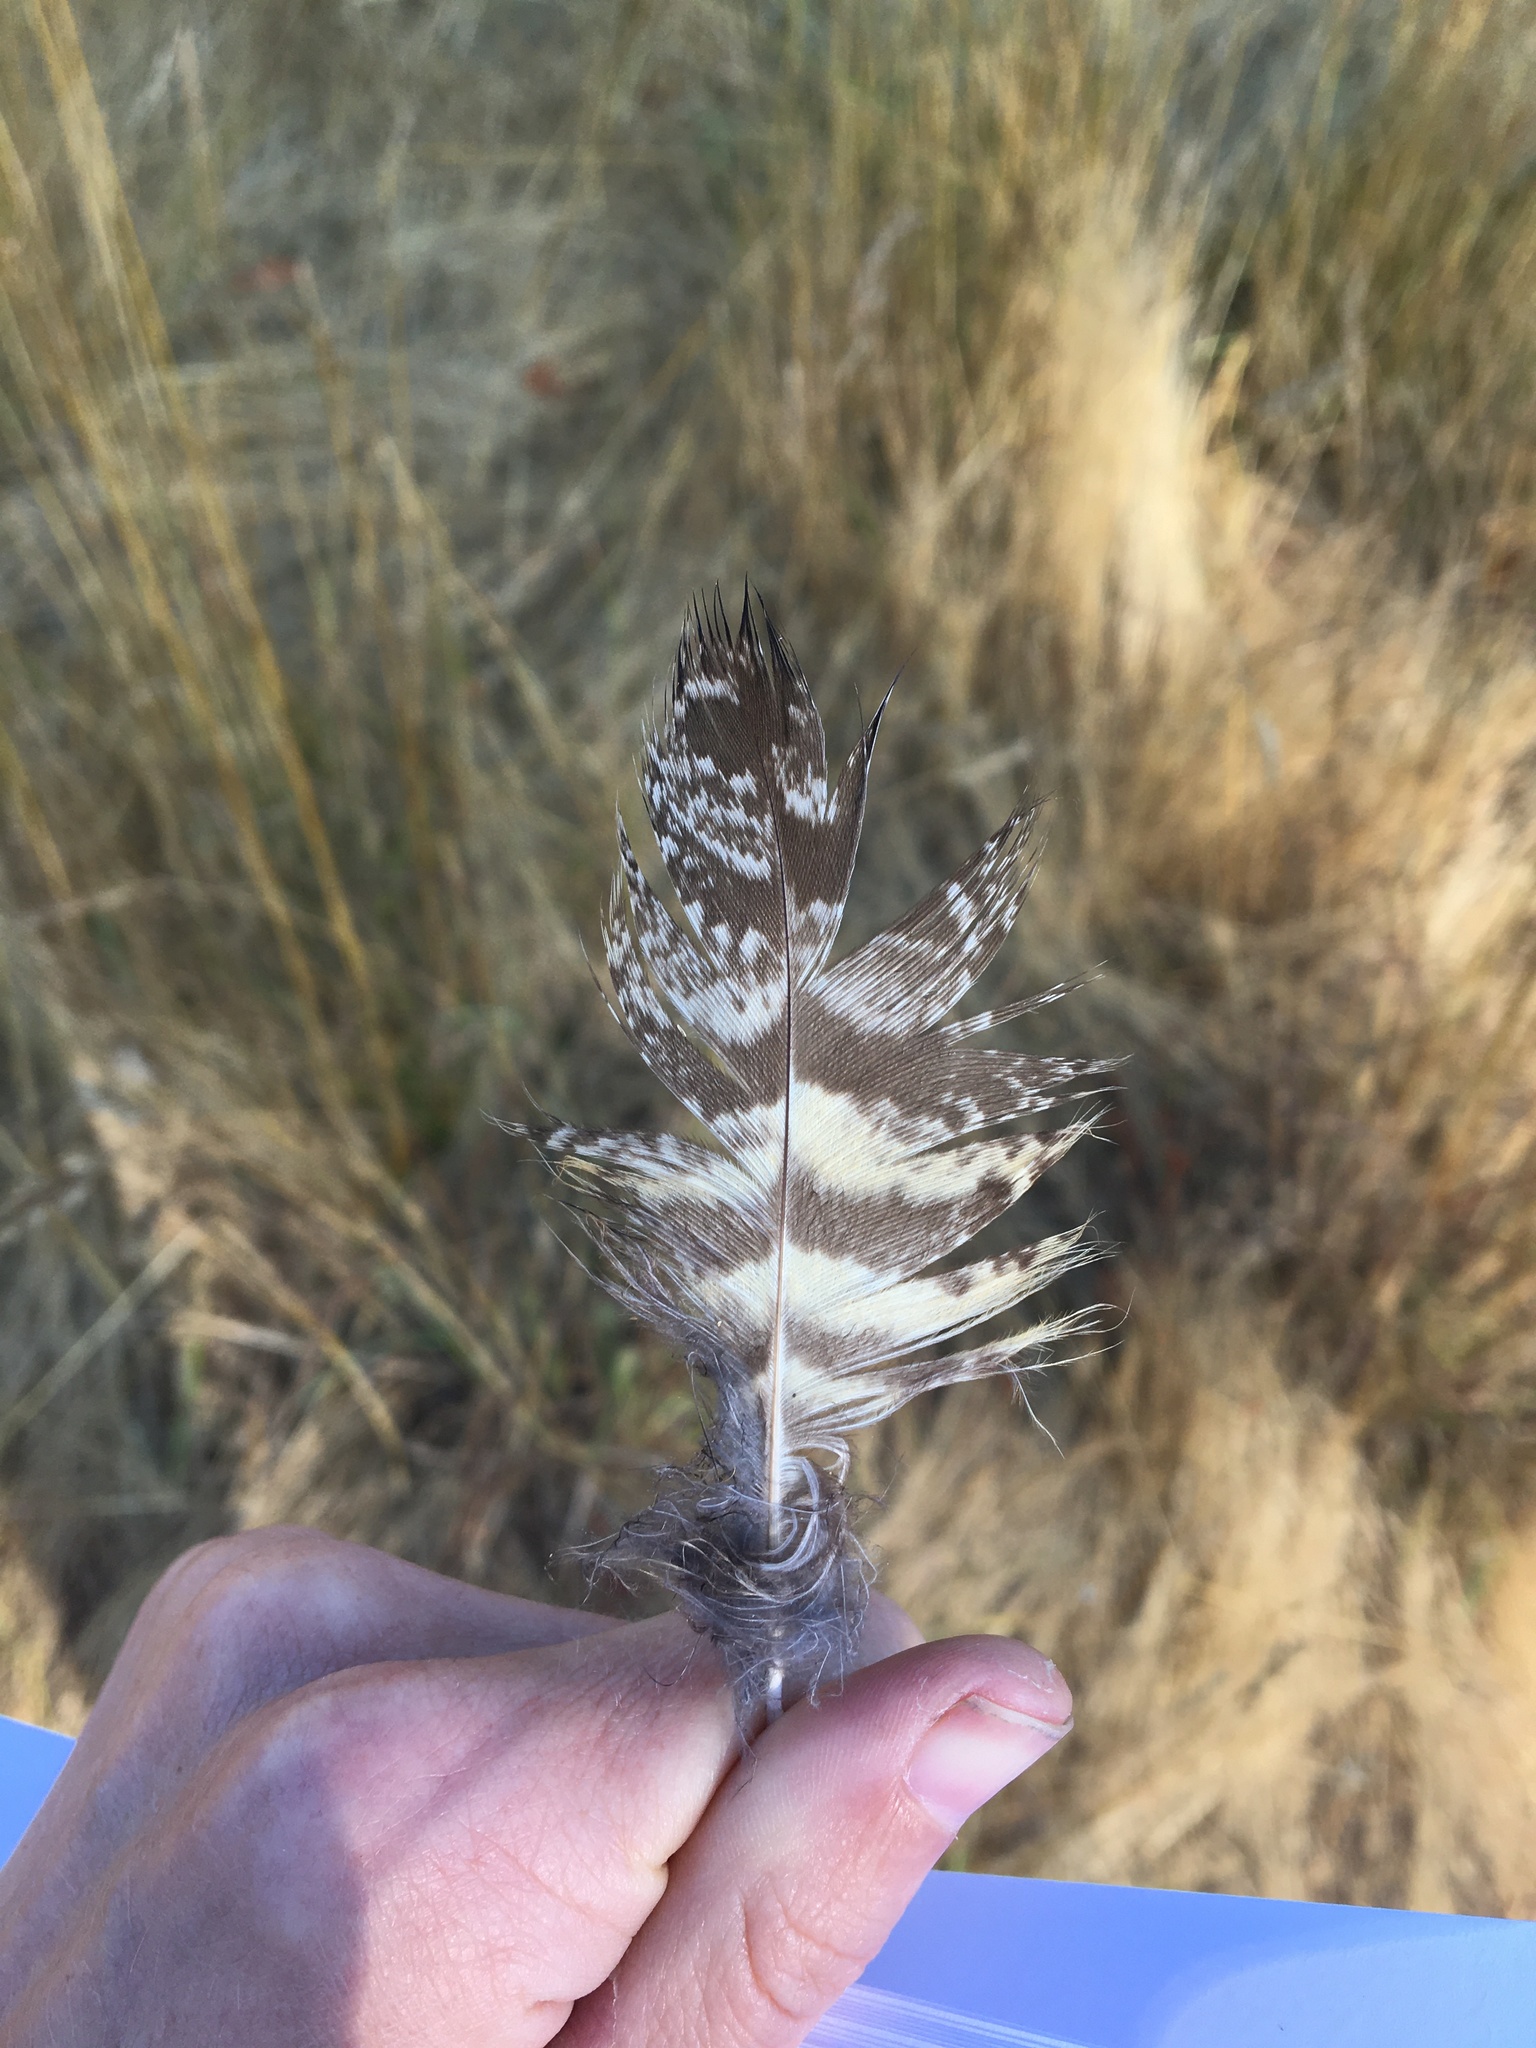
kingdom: Animalia
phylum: Chordata
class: Aves
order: Strigiformes
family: Strigidae
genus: Bubo
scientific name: Bubo virginianus
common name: Great horned owl
